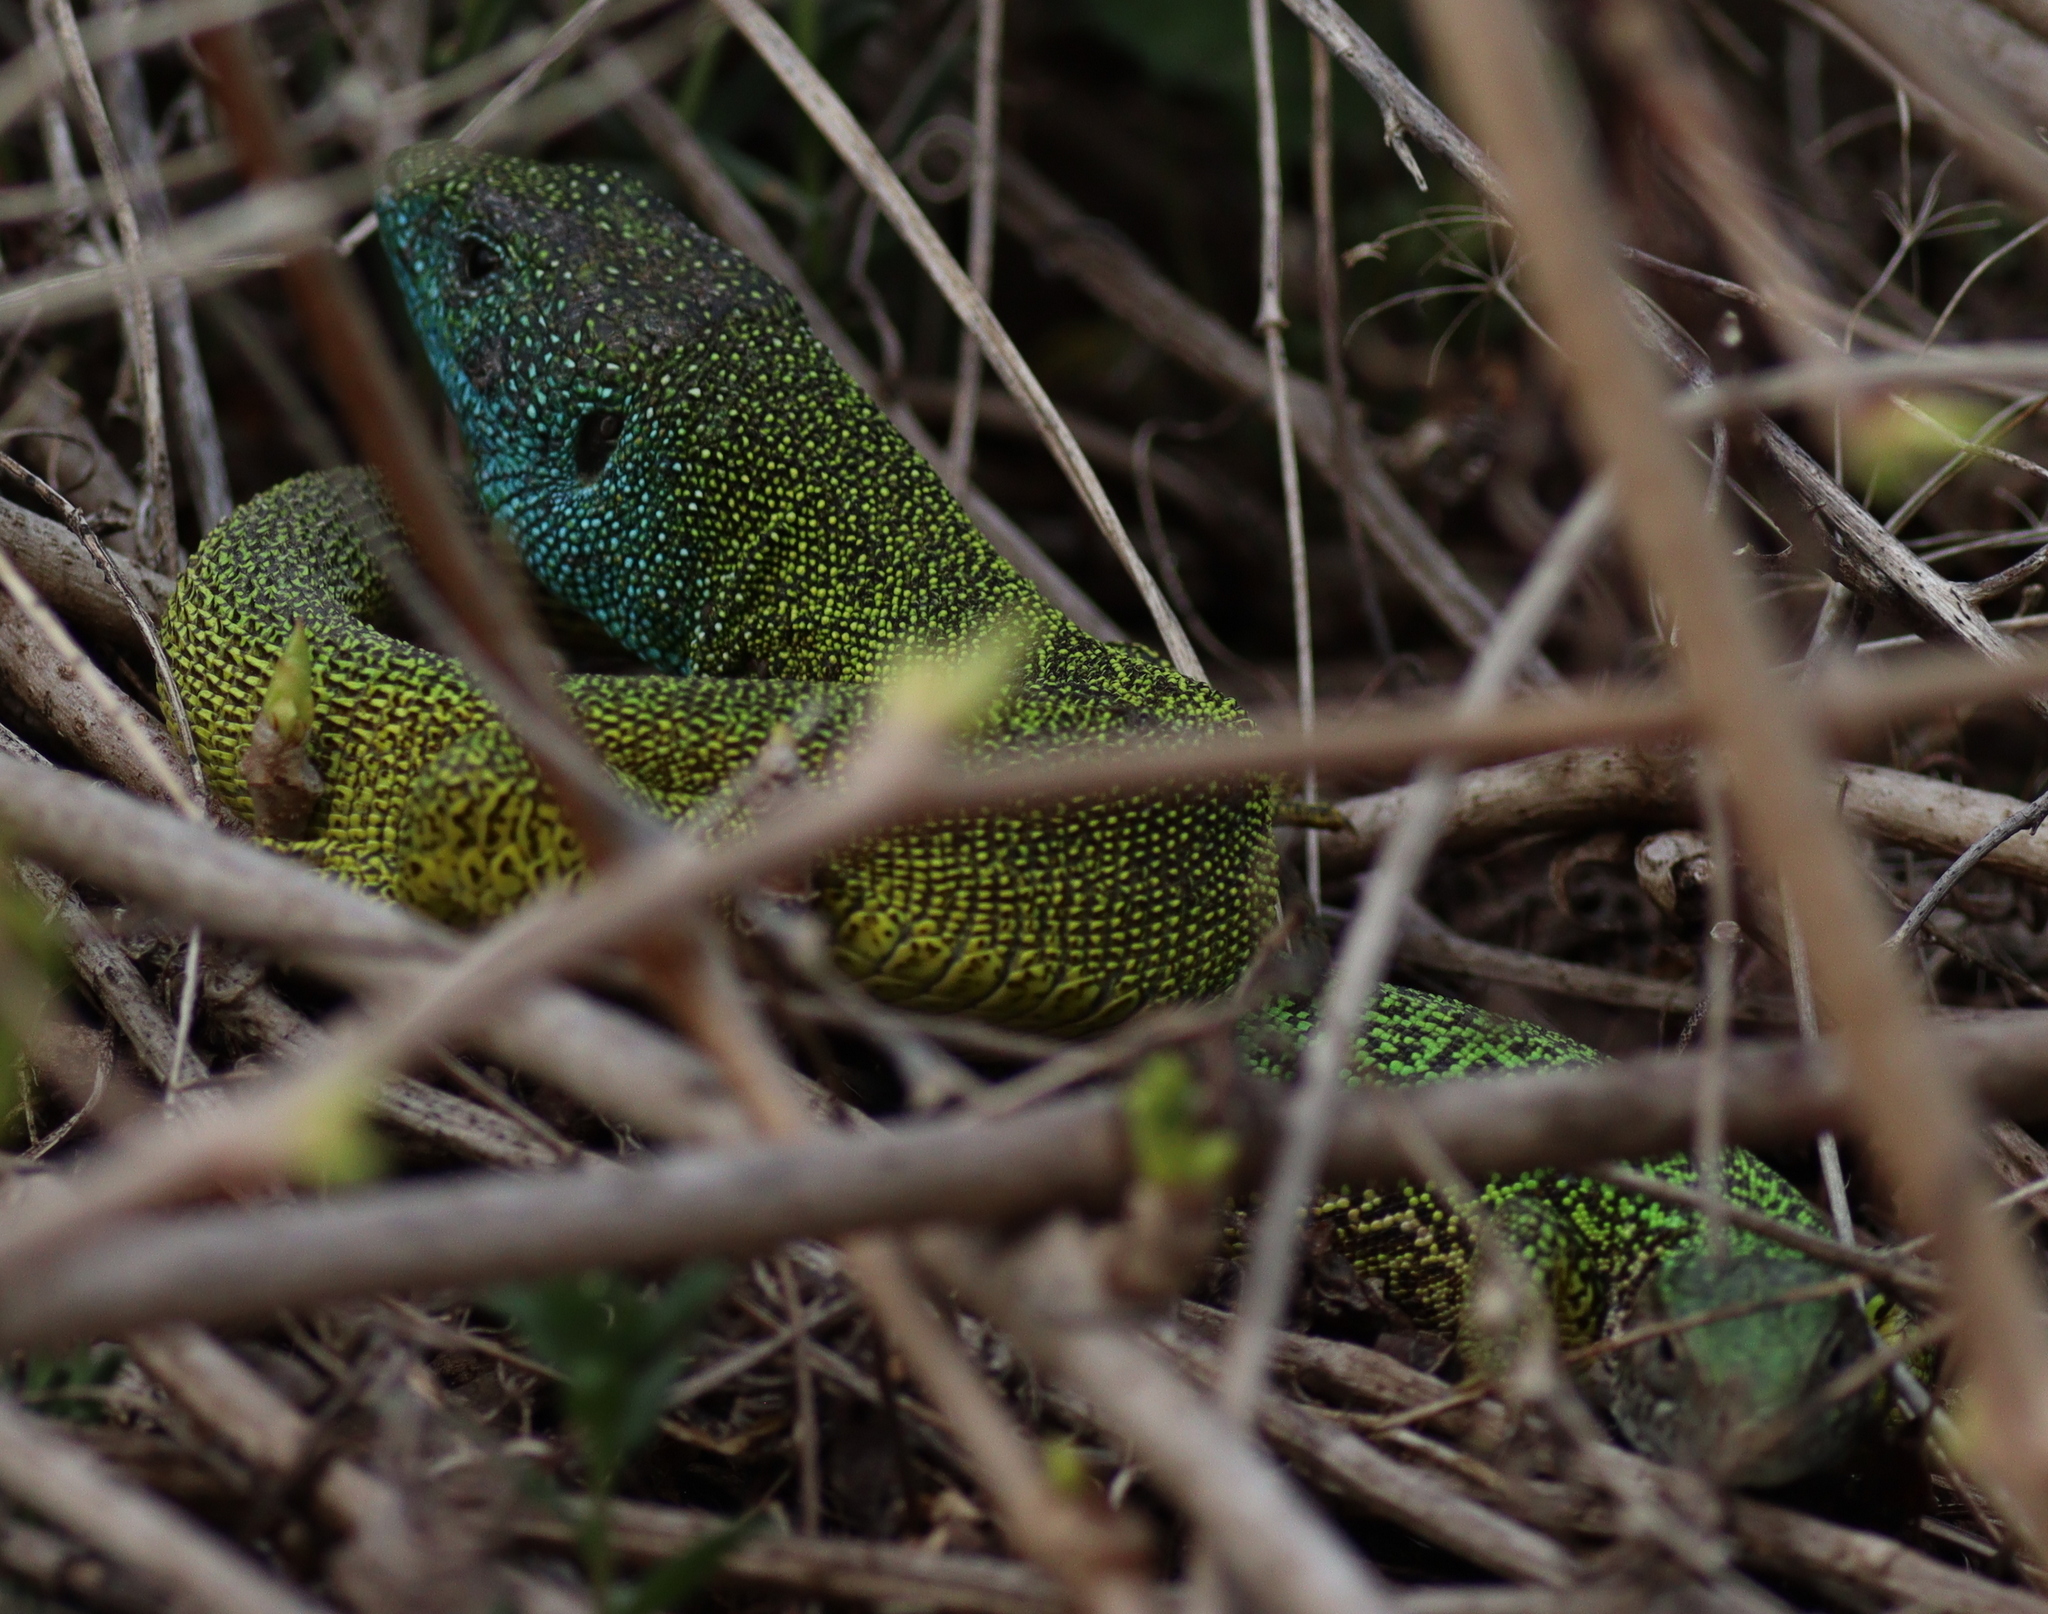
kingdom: Animalia
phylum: Chordata
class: Squamata
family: Lacertidae
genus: Lacerta
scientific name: Lacerta viridis
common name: European green lizard
